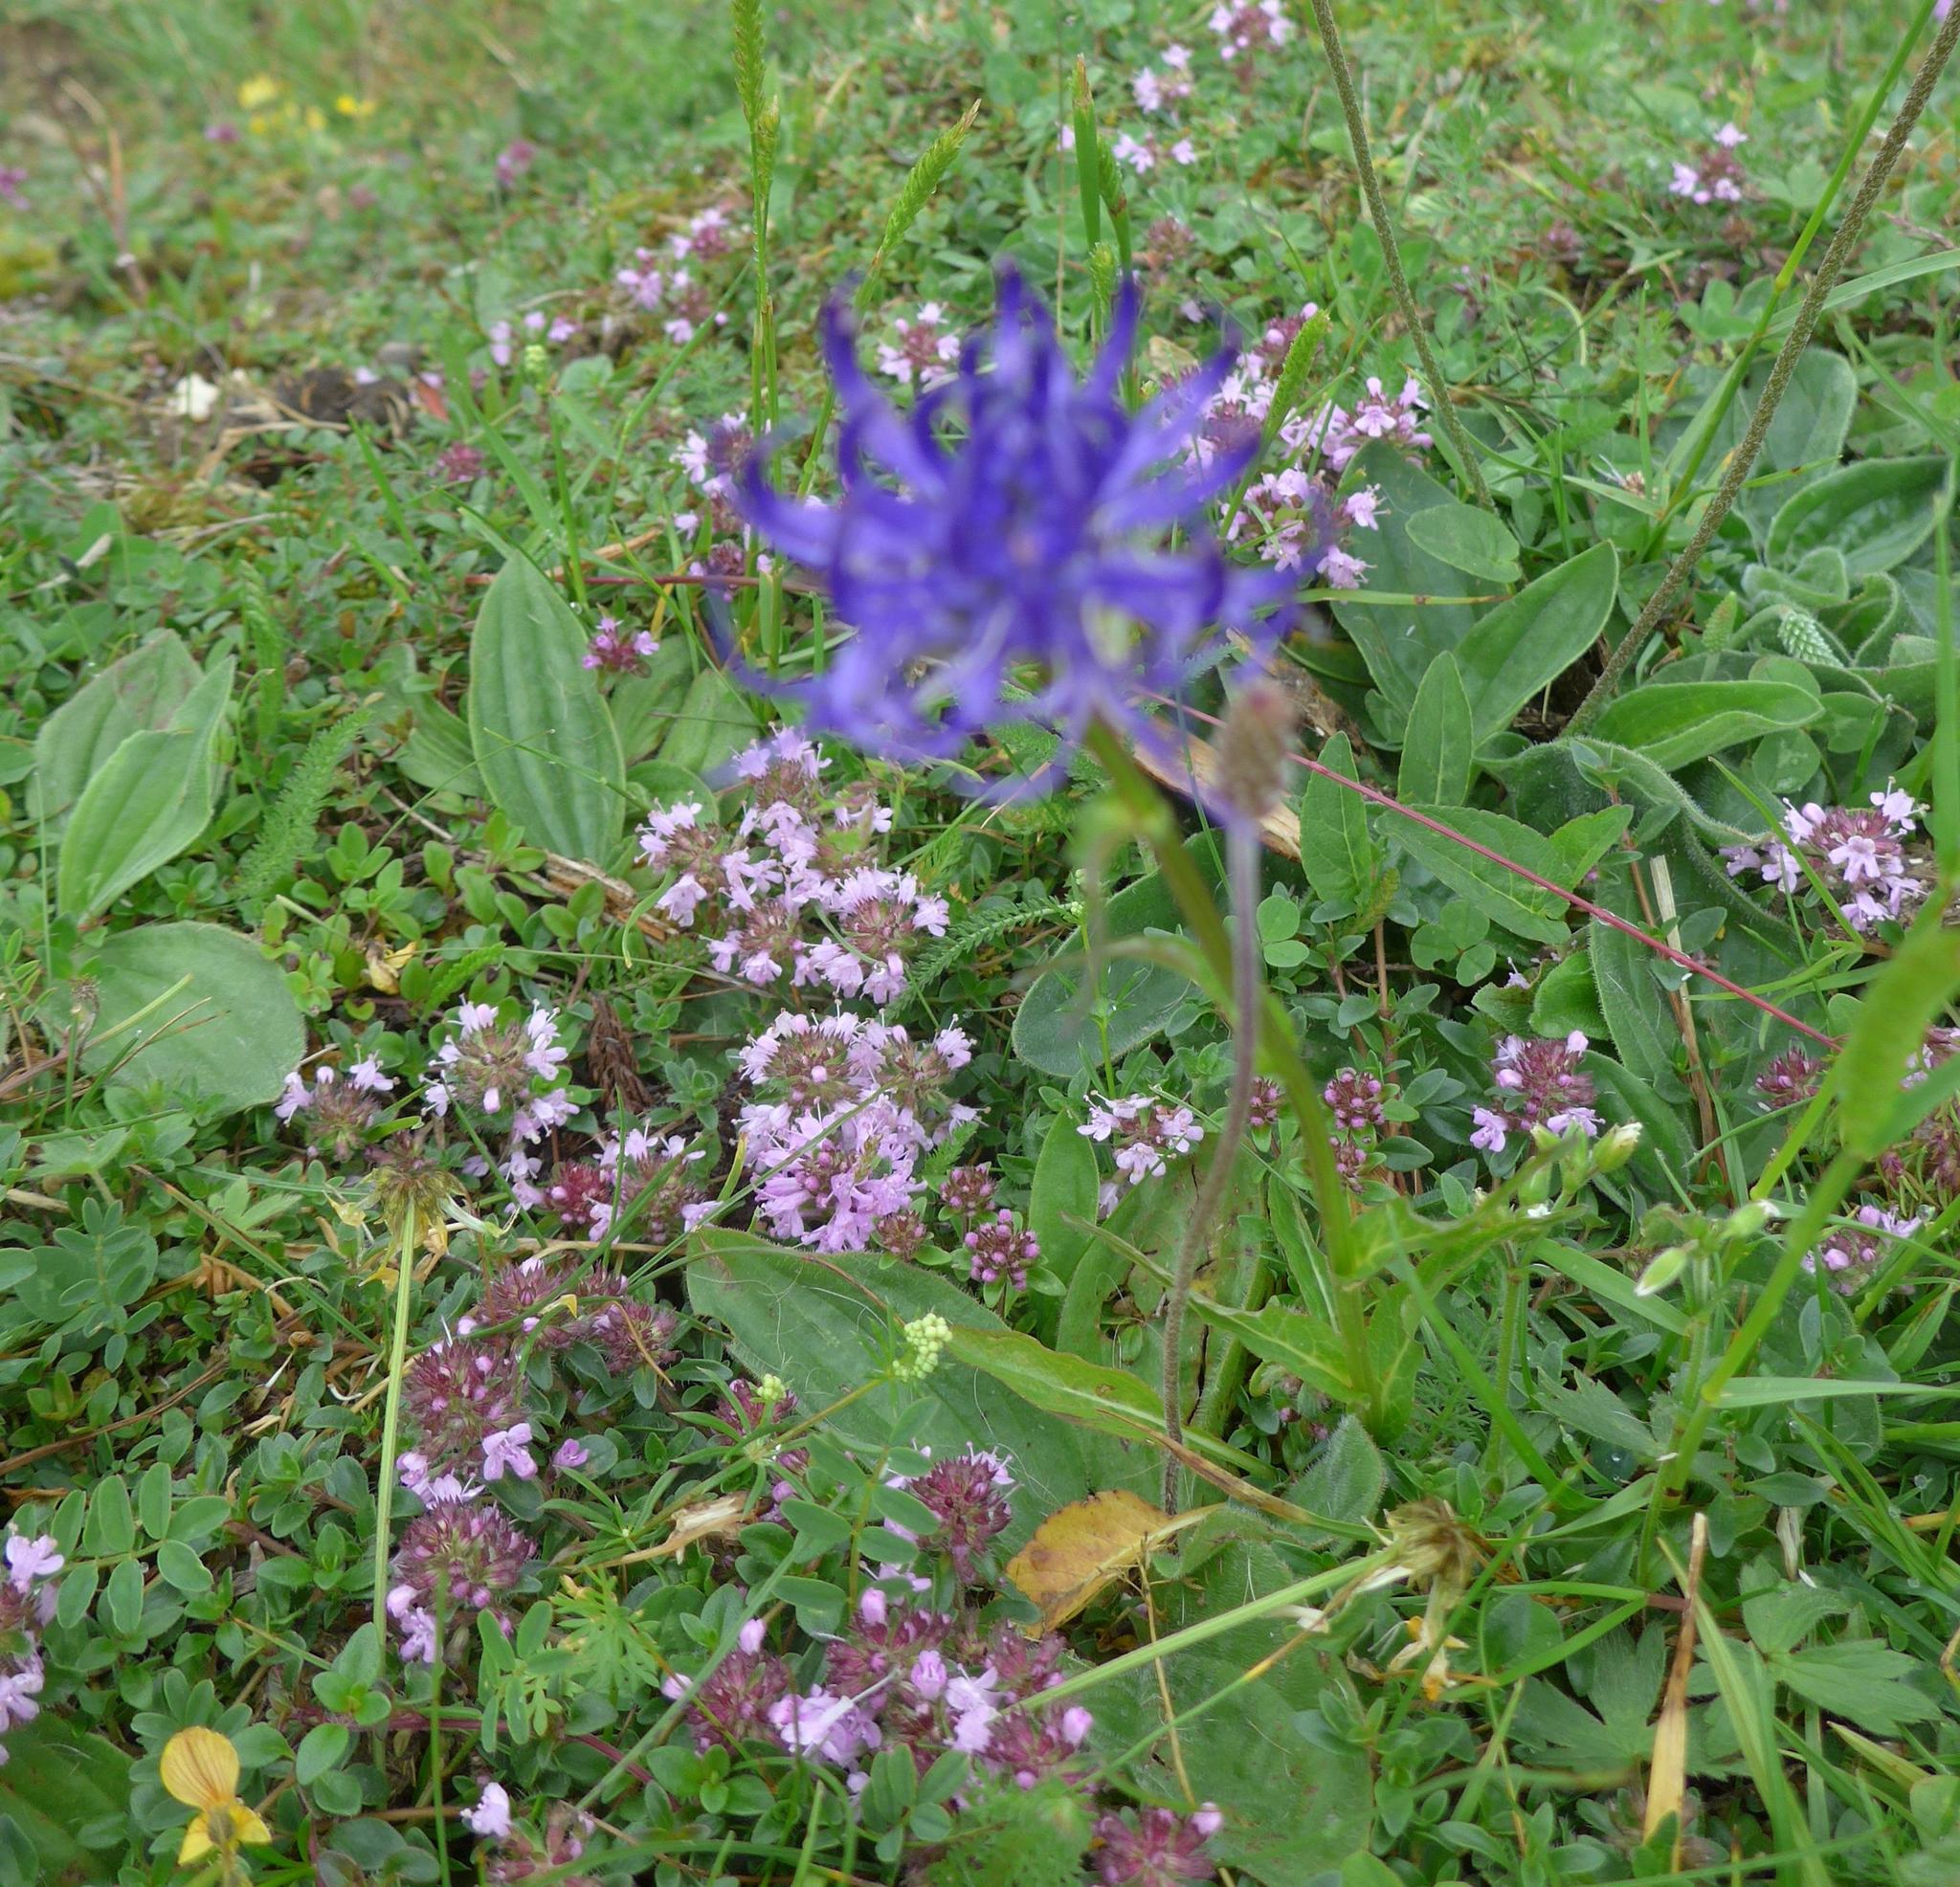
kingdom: Plantae
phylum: Tracheophyta
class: Magnoliopsida
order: Asterales
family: Campanulaceae
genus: Phyteuma
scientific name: Phyteuma orbiculare
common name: Round-headed rampion
